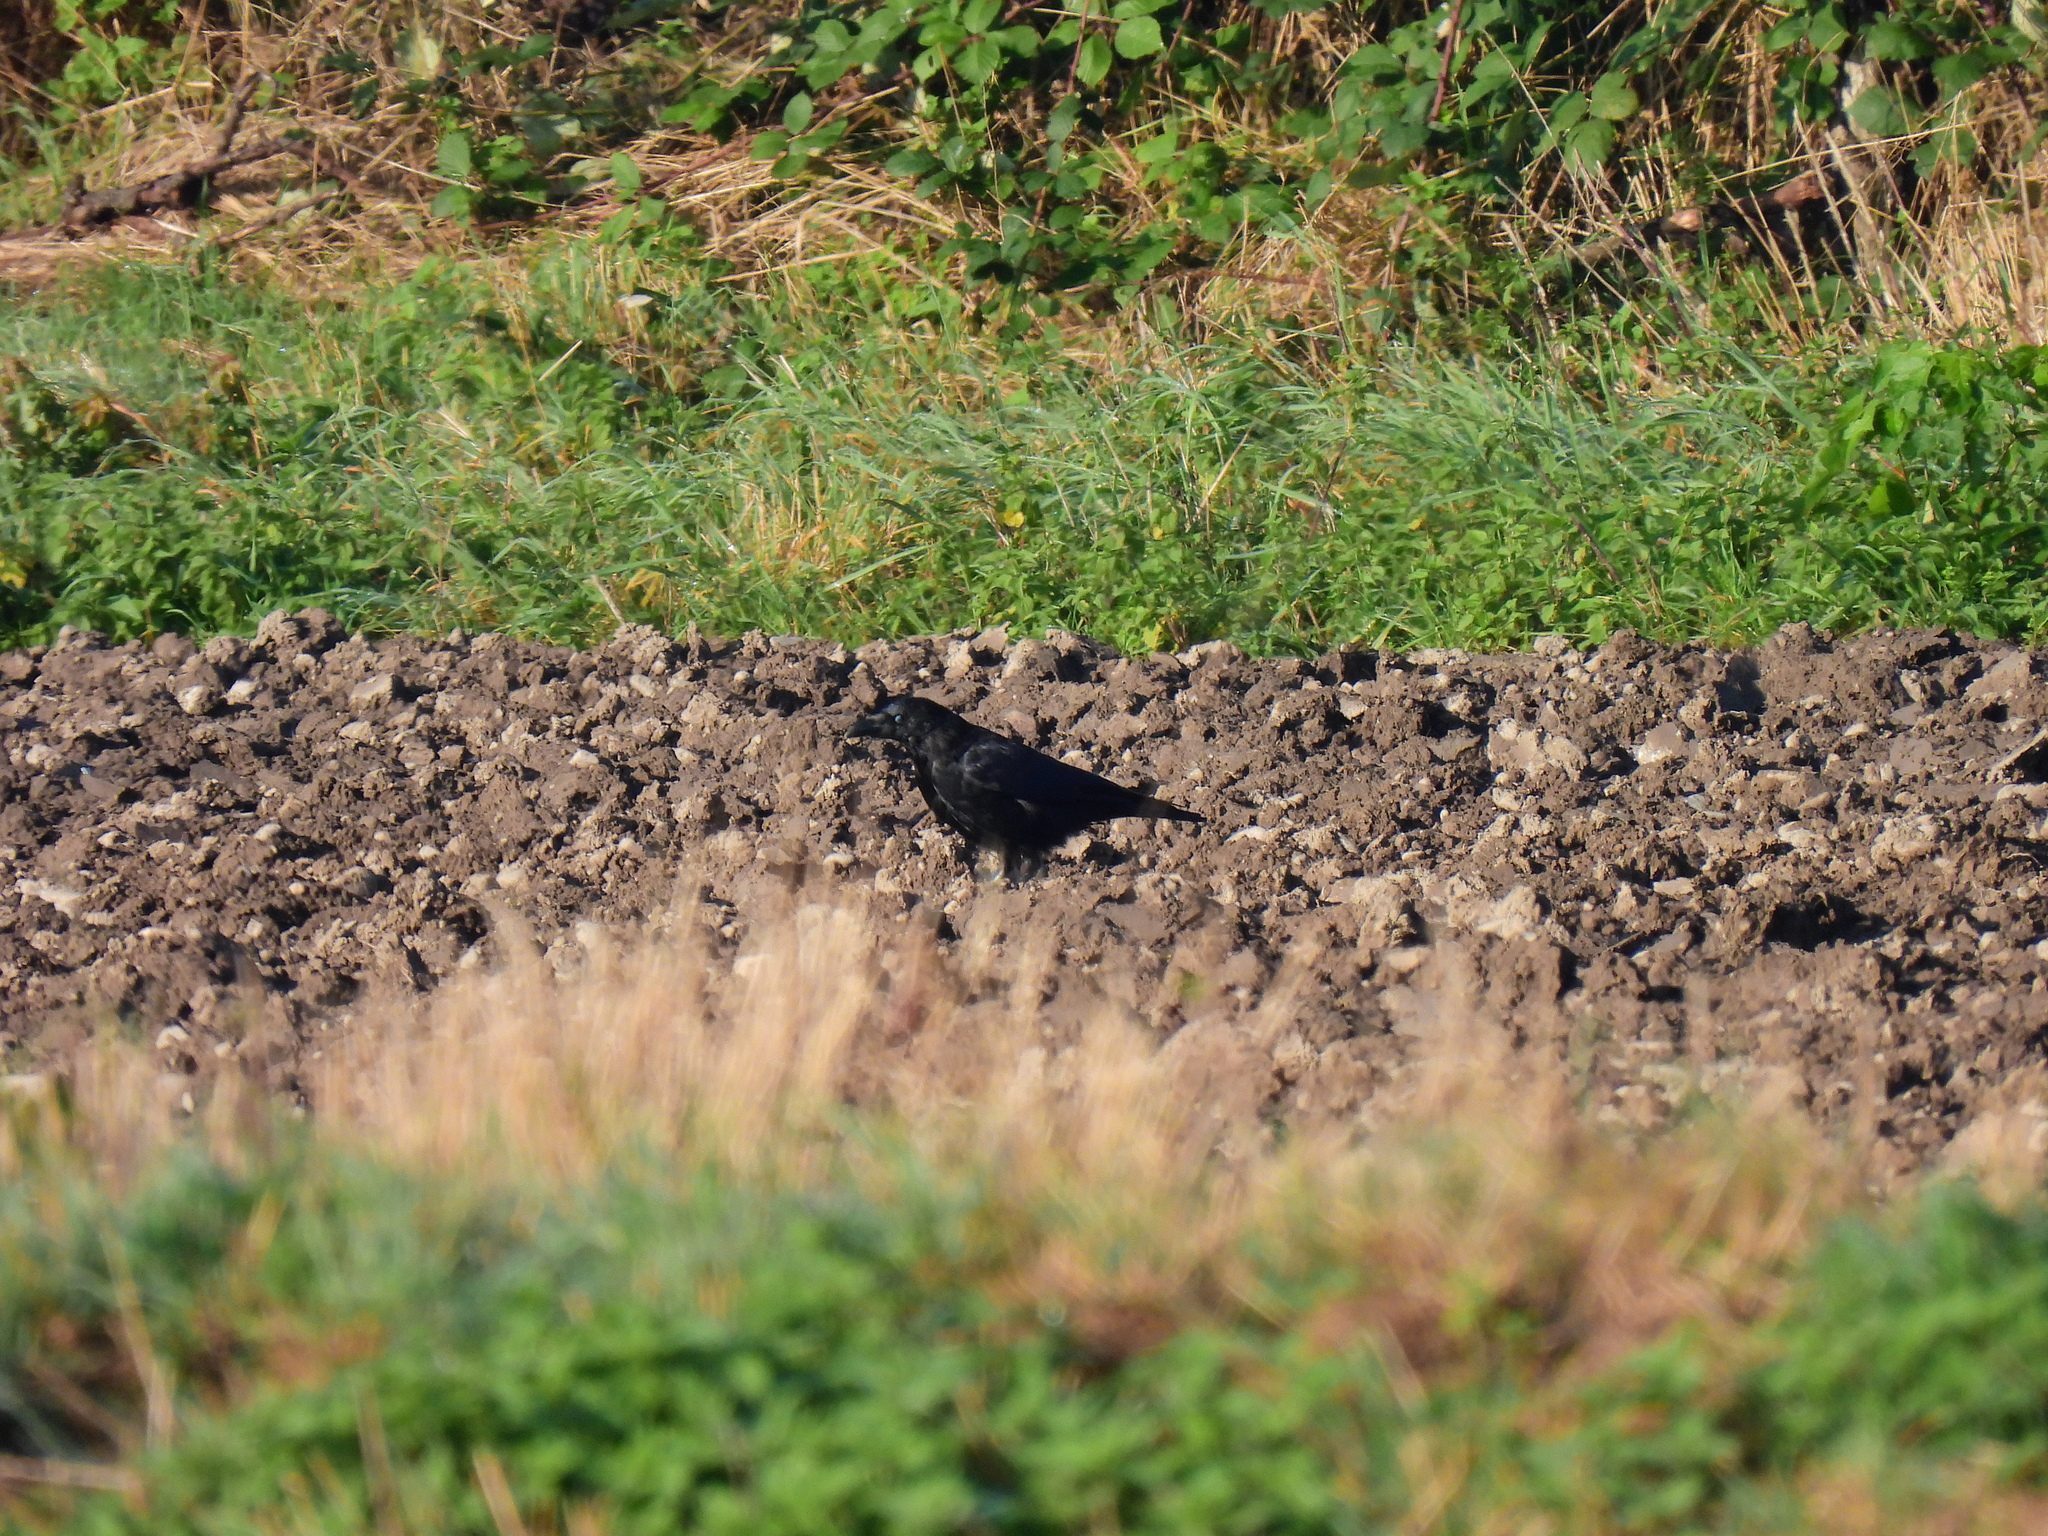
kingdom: Animalia
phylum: Chordata
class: Aves
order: Passeriformes
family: Corvidae
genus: Corvus
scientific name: Corvus corone
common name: Carrion crow
